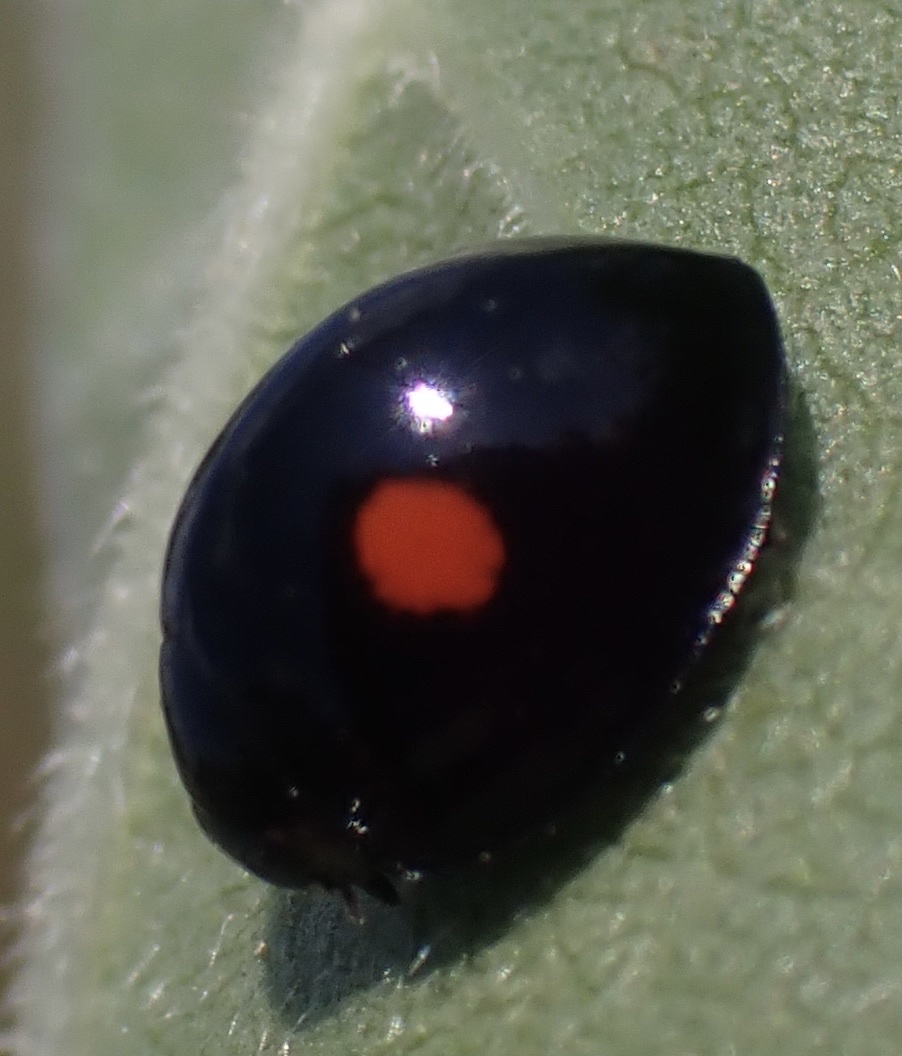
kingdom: Animalia
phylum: Arthropoda
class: Insecta
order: Coleoptera
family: Coccinellidae
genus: Chilocorus
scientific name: Chilocorus stigma
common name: Twicestabbed lady beetle
